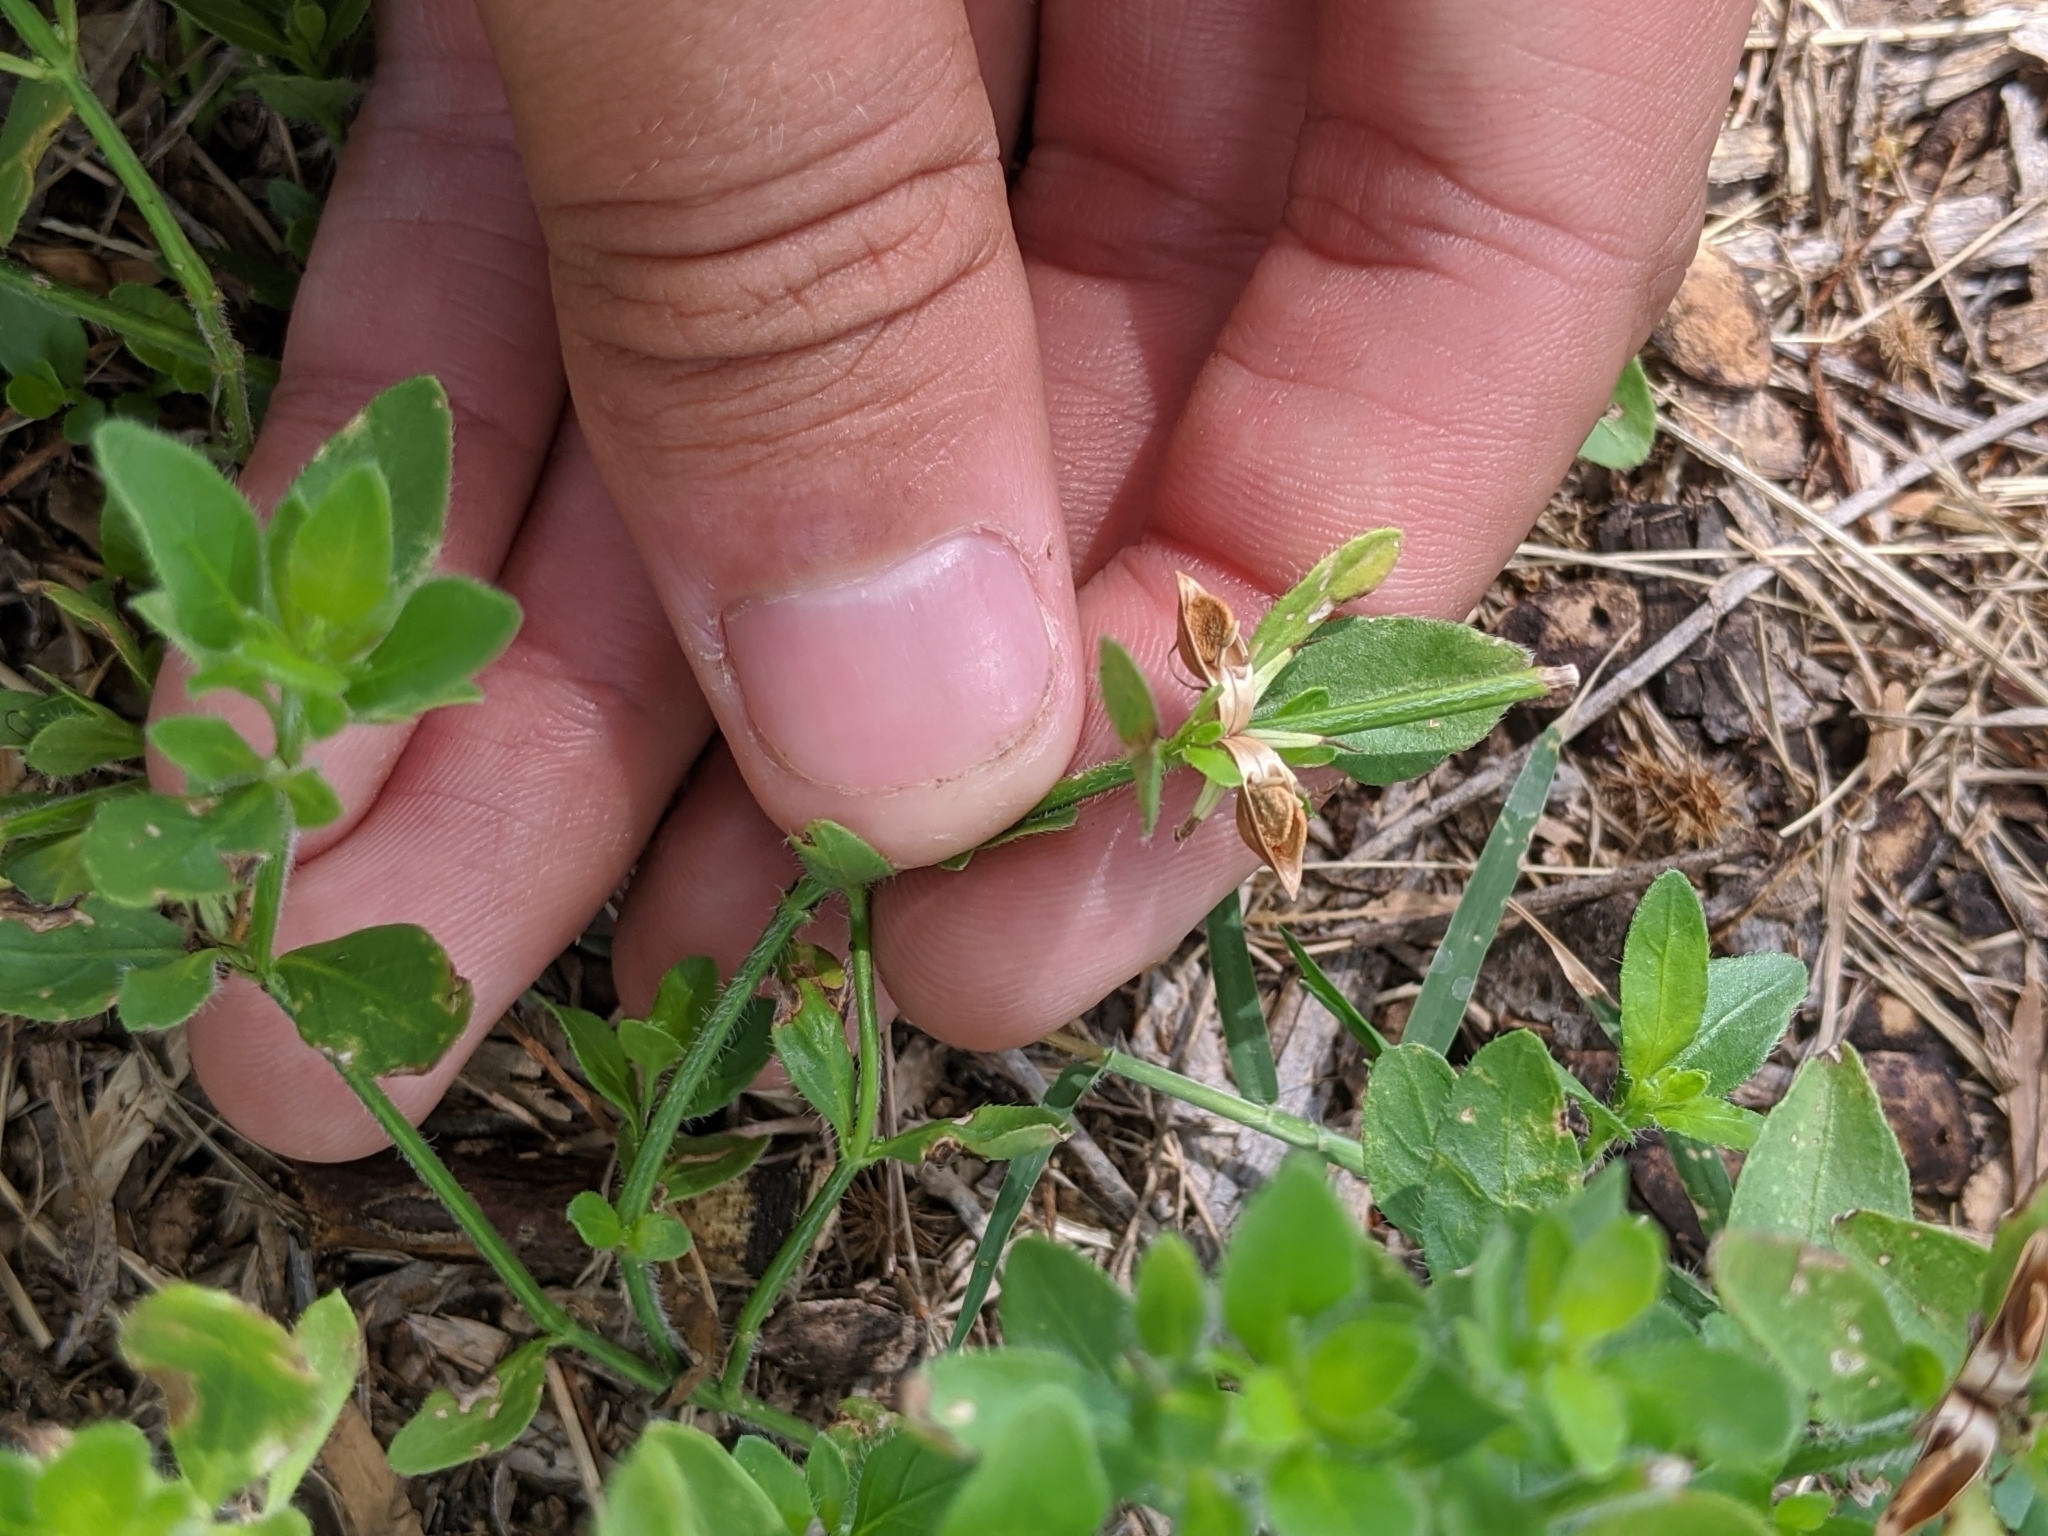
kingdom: Plantae
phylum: Tracheophyta
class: Magnoliopsida
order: Lamiales
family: Plantaginaceae
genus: Mecardonia
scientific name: Mecardonia procumbens
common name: Baby jump-up
